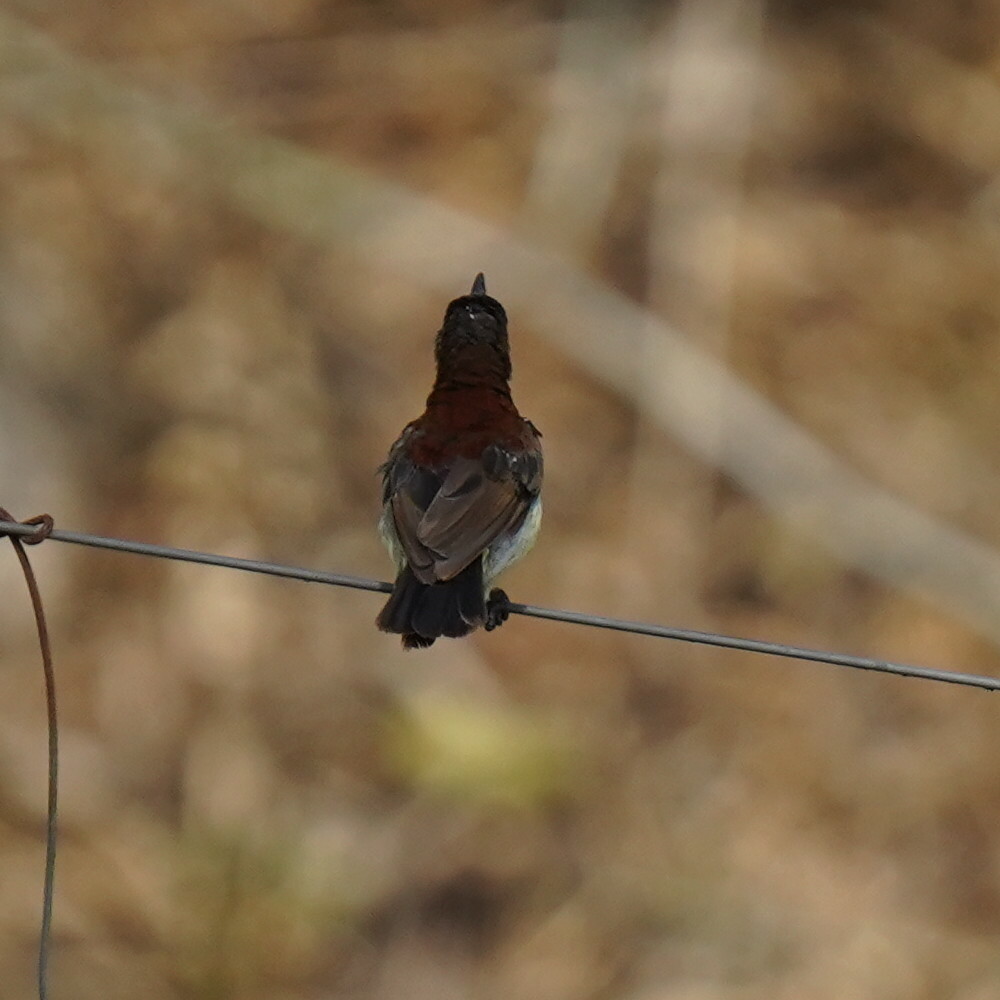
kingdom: Animalia
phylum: Chordata
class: Aves
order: Passeriformes
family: Nectariniidae
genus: Leptocoma
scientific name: Leptocoma zeylonica
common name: Purple-rumped sunbird
